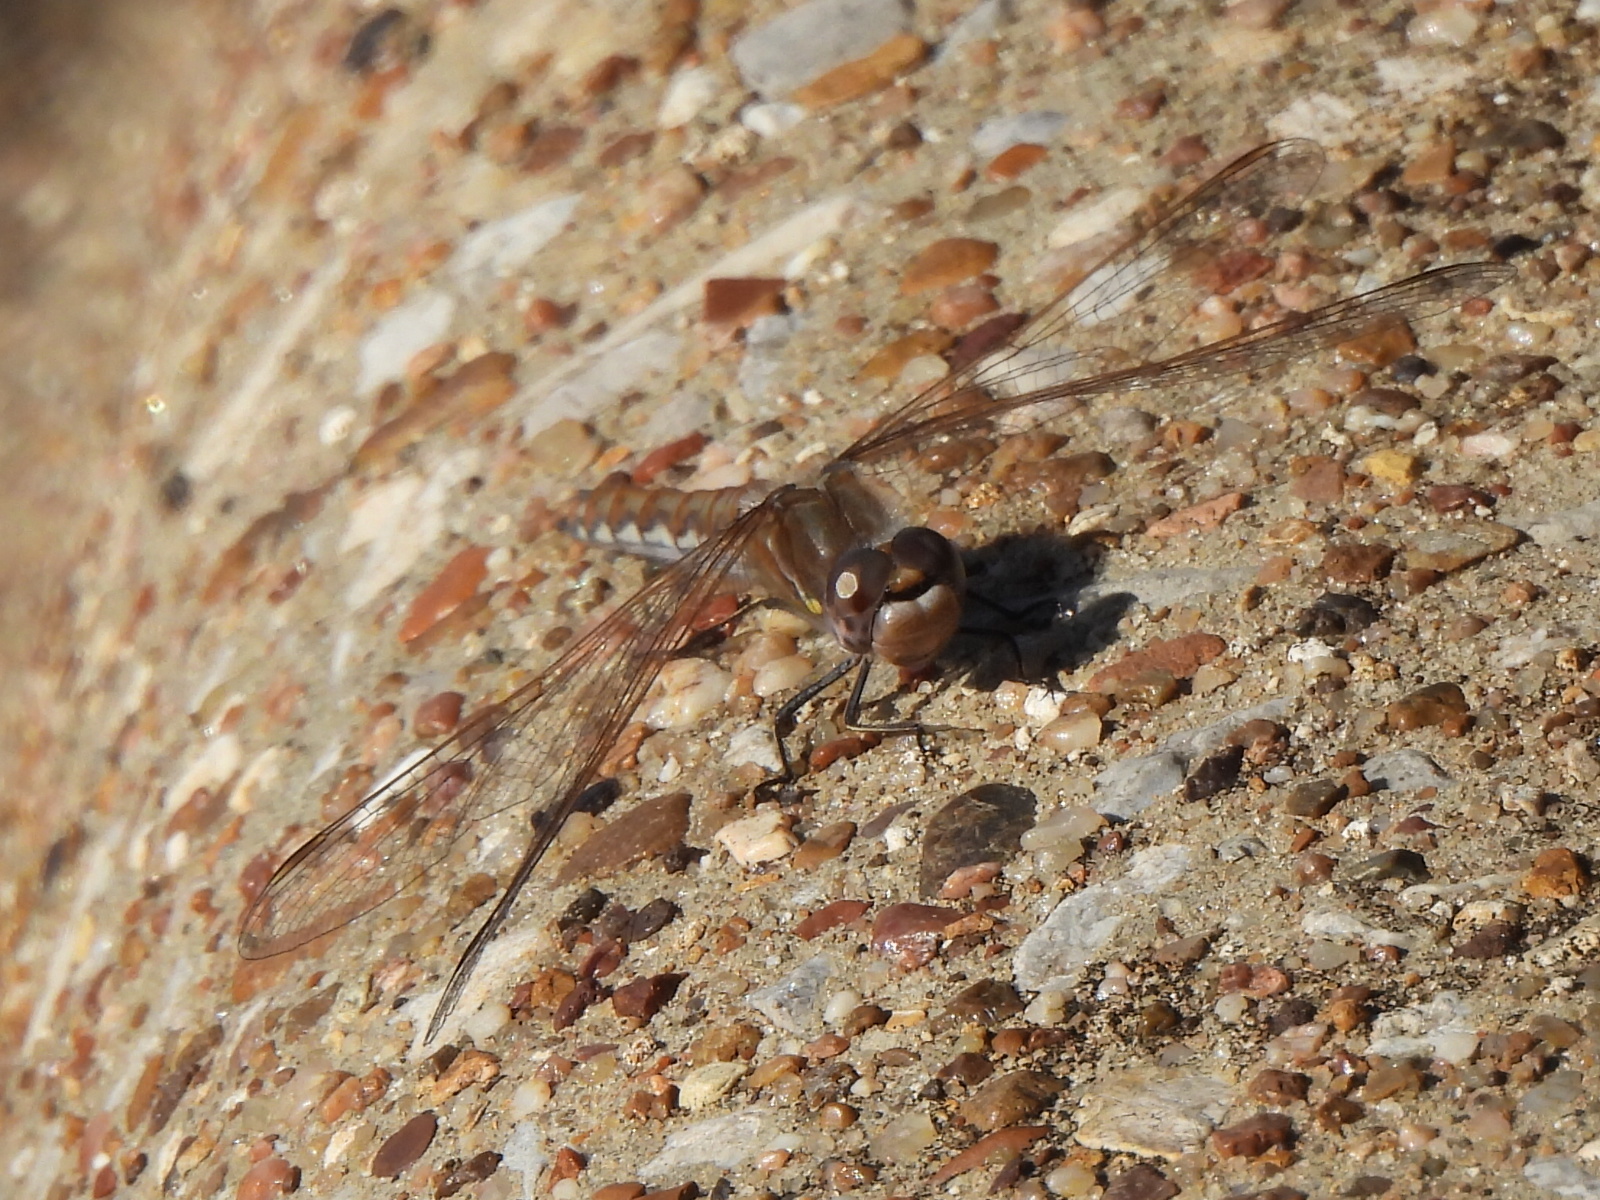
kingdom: Animalia
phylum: Arthropoda
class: Insecta
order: Odonata
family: Libellulidae
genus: Sympetrum
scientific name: Sympetrum corruptum
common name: Variegated meadowhawk
